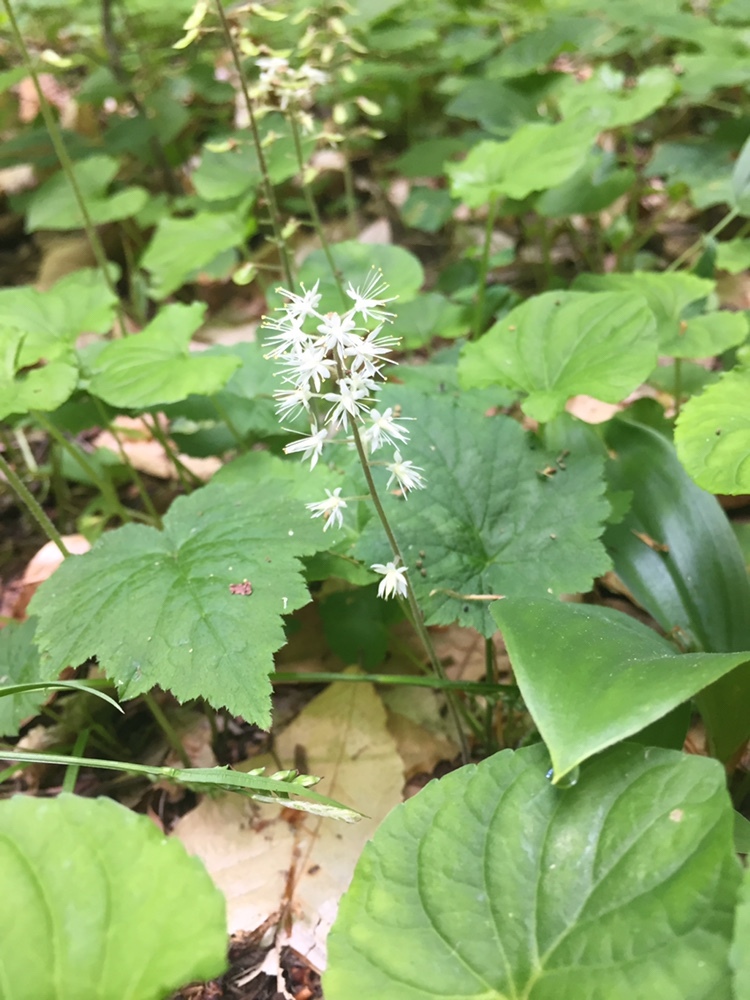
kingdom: Plantae
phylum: Tracheophyta
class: Magnoliopsida
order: Saxifragales
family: Saxifragaceae
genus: Tiarella
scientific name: Tiarella stolonifera
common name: Stoloniferous foamflower
